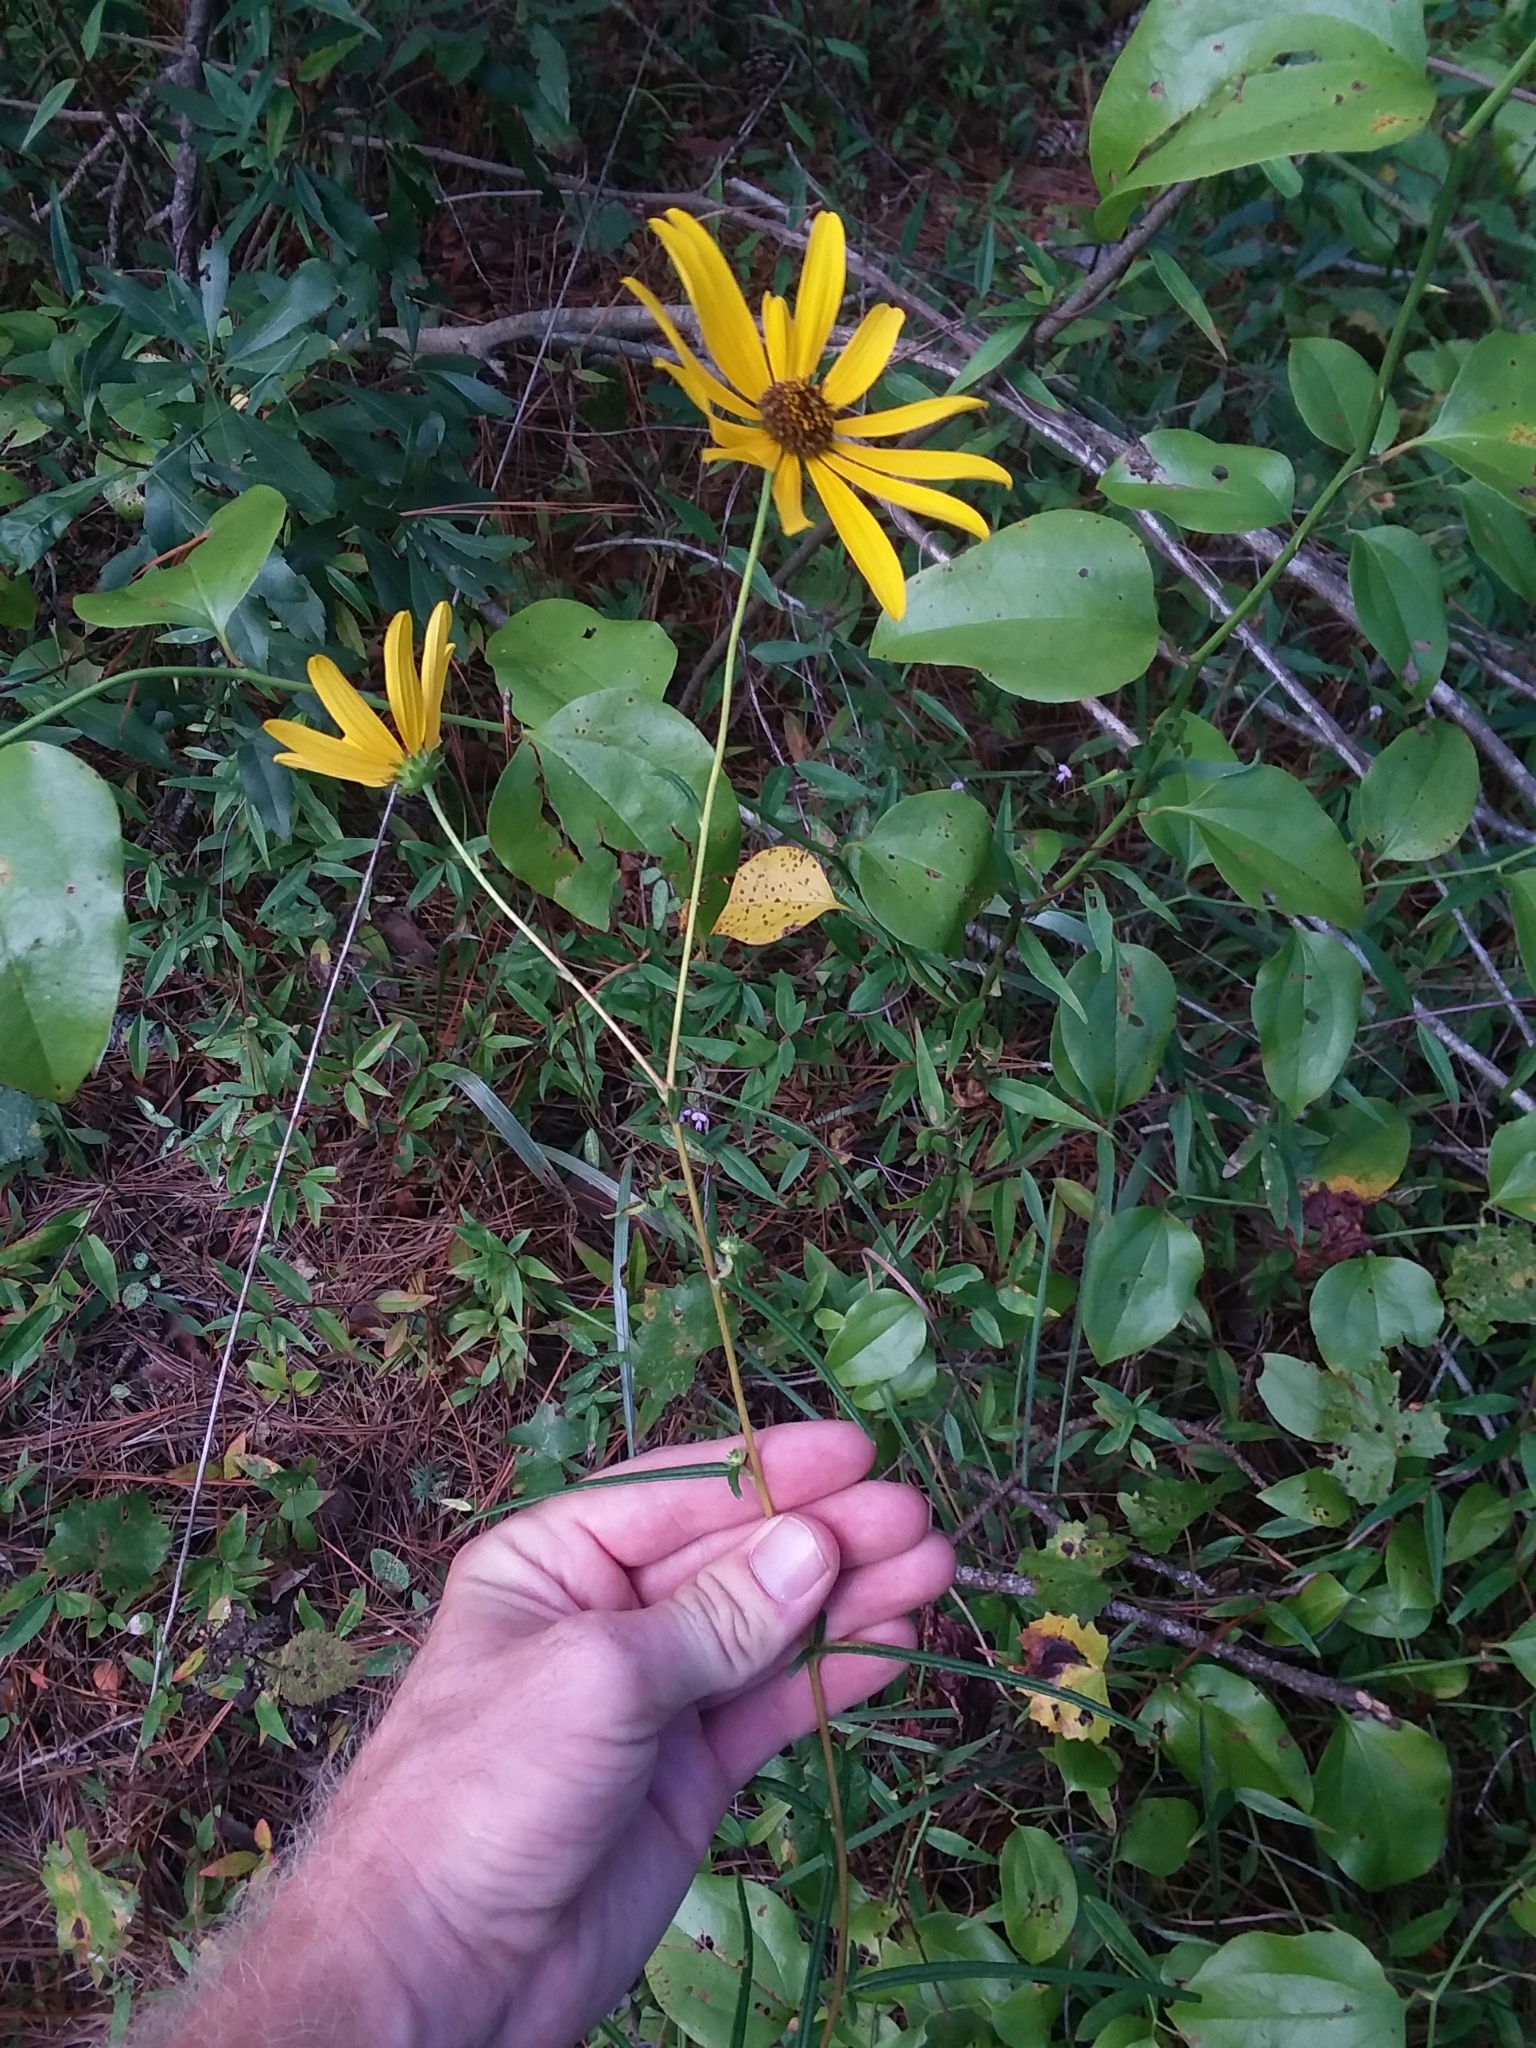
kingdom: Plantae
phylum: Tracheophyta
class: Magnoliopsida
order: Asterales
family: Asteraceae
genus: Helianthus
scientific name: Helianthus angustifolius
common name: Swamp sunflower
